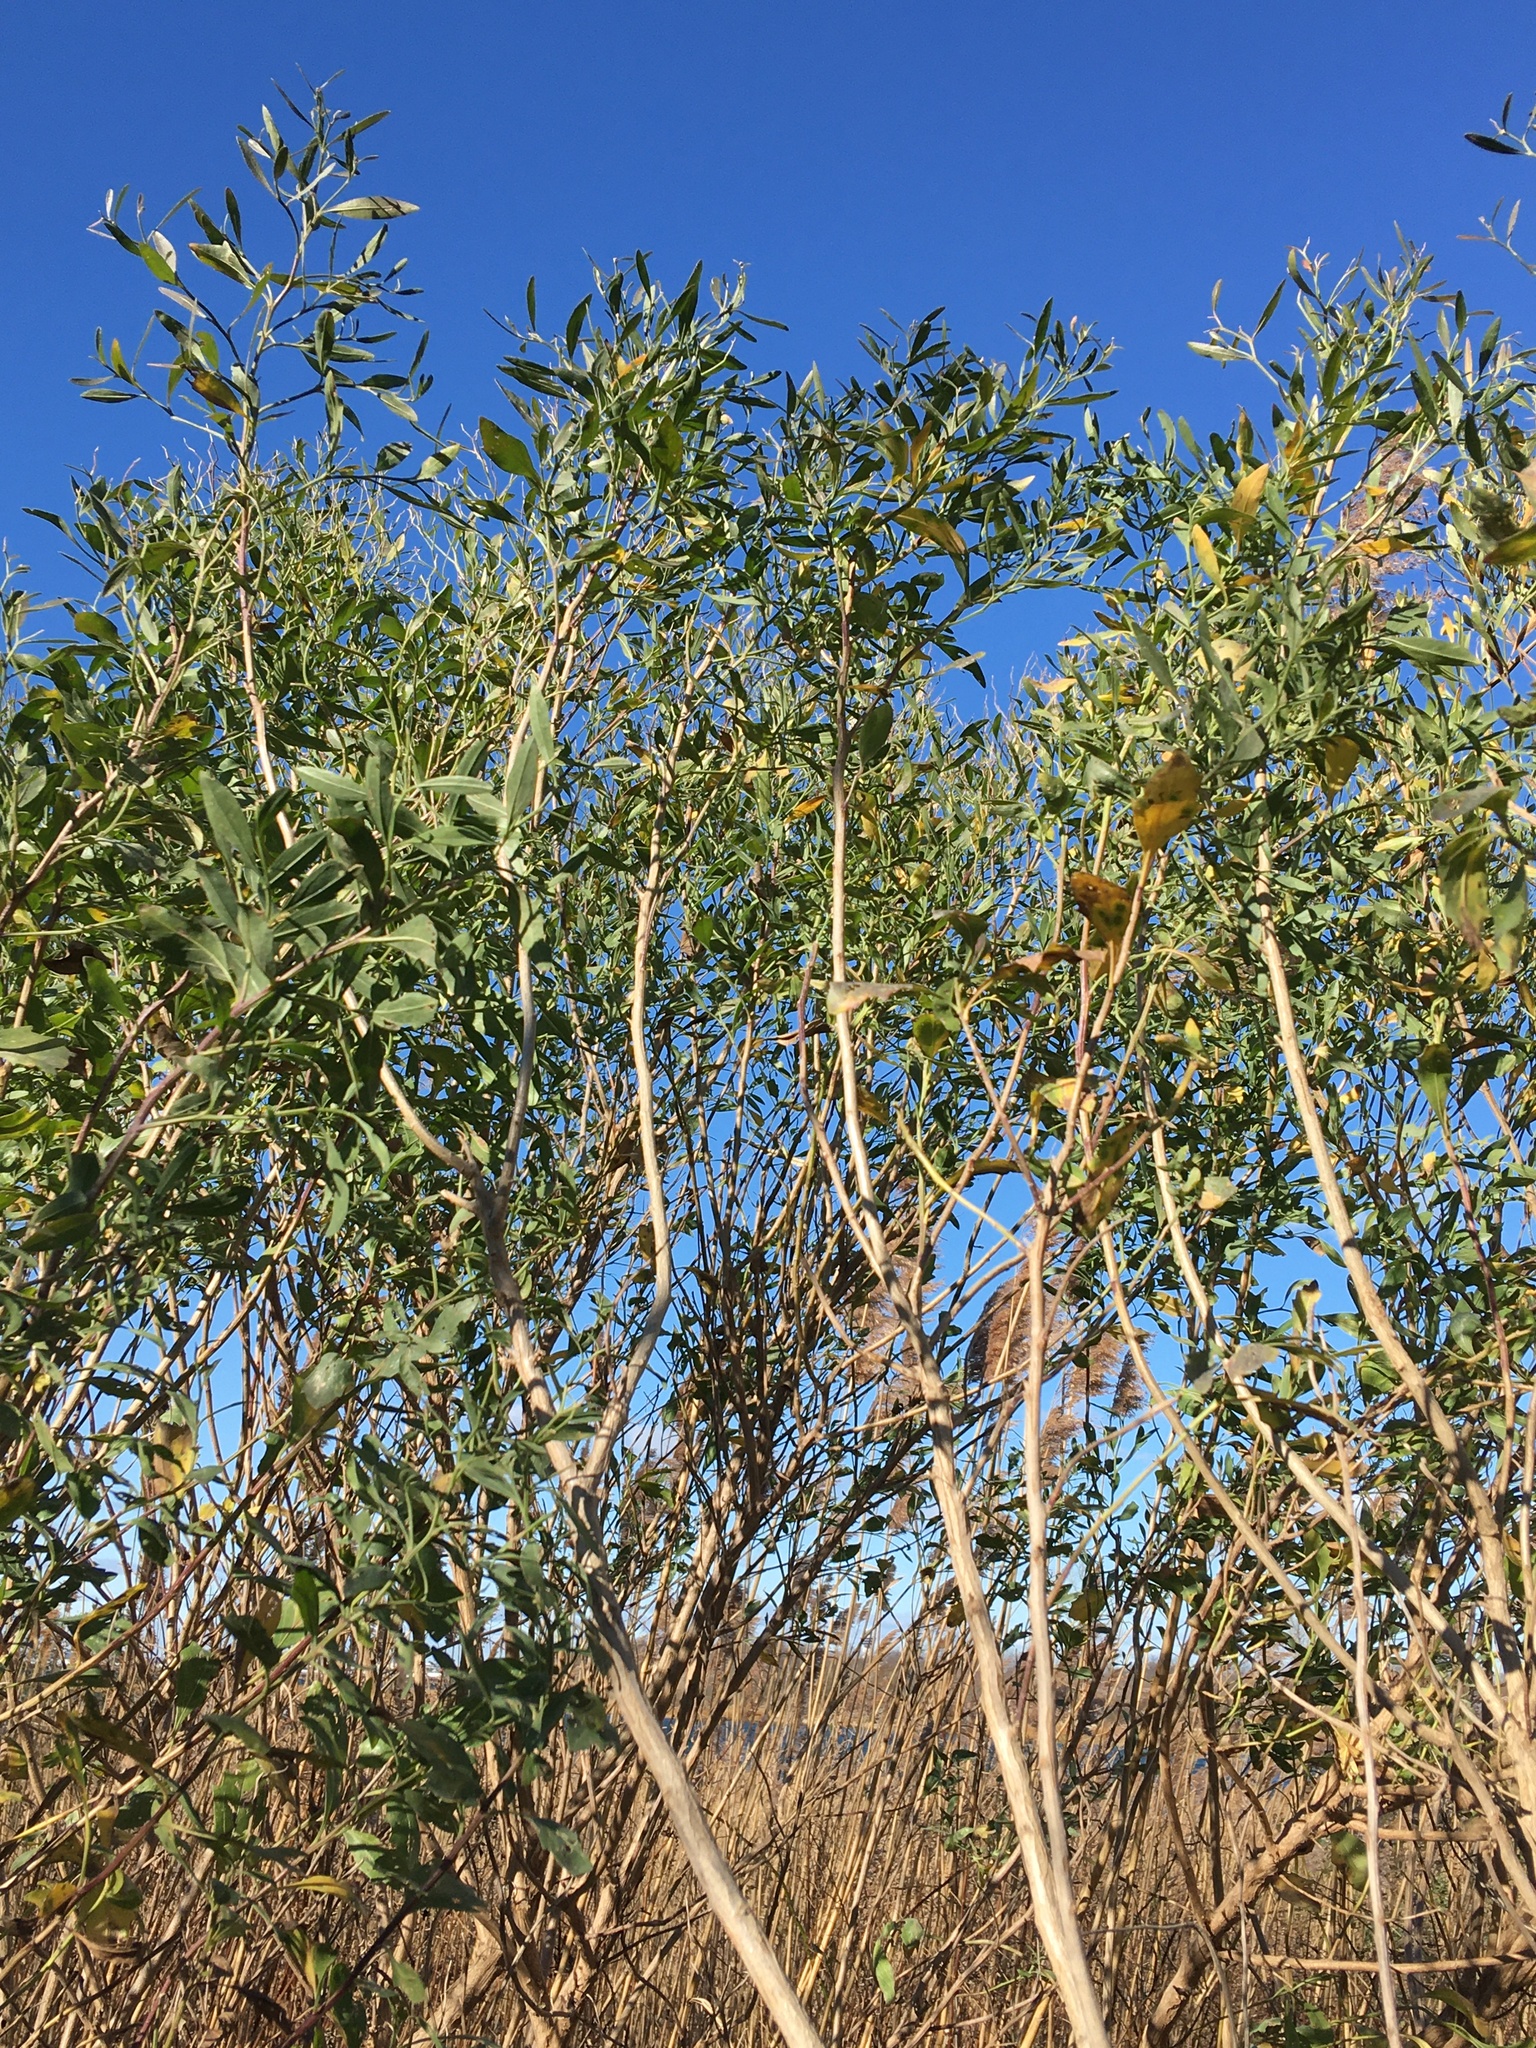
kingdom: Plantae
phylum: Tracheophyta
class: Magnoliopsida
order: Asterales
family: Asteraceae
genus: Baccharis
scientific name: Baccharis halimifolia
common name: Eastern baccharis
